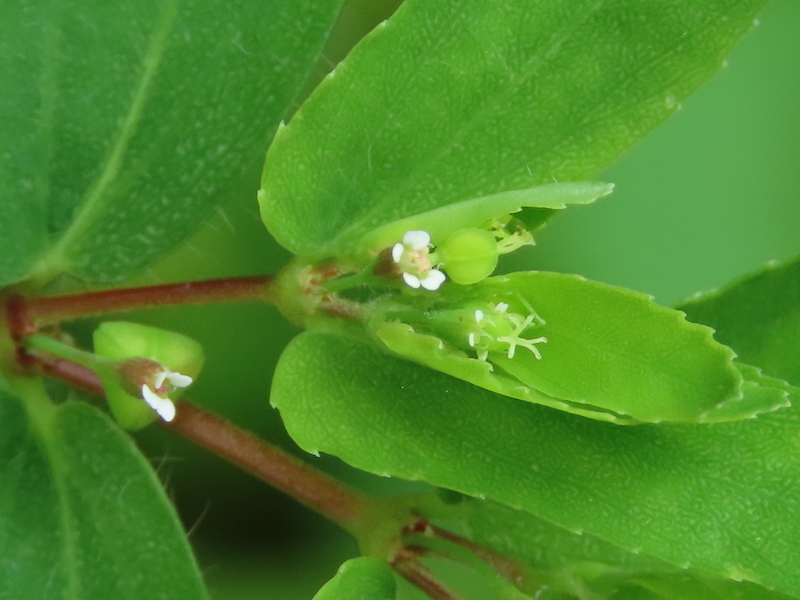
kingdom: Plantae
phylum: Tracheophyta
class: Magnoliopsida
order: Malpighiales
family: Euphorbiaceae
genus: Euphorbia
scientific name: Euphorbia nutans
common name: Eyebane
